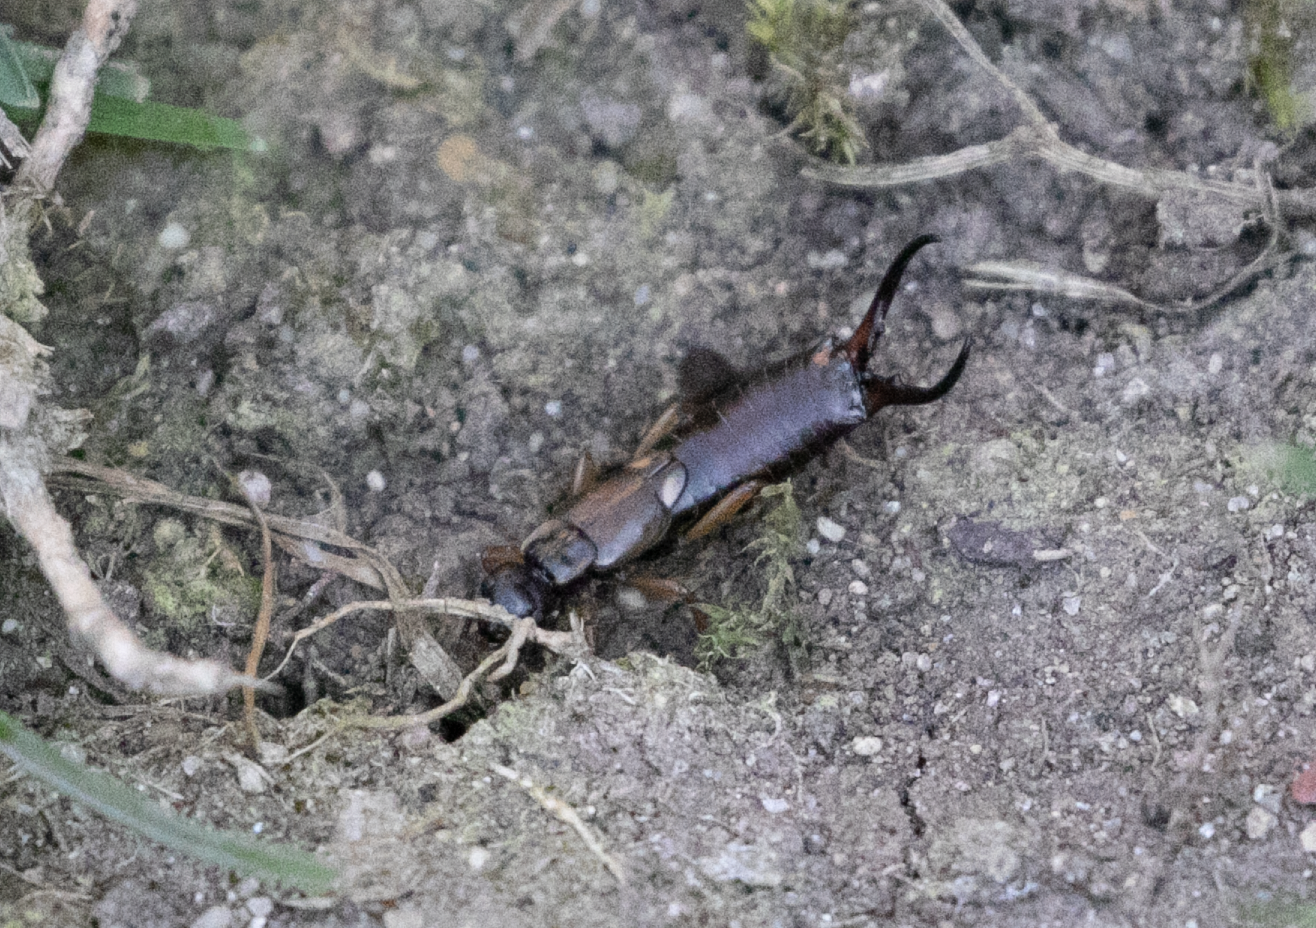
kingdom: Animalia
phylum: Arthropoda
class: Insecta
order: Dermaptera
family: Forficulidae
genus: Forficula
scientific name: Forficula
